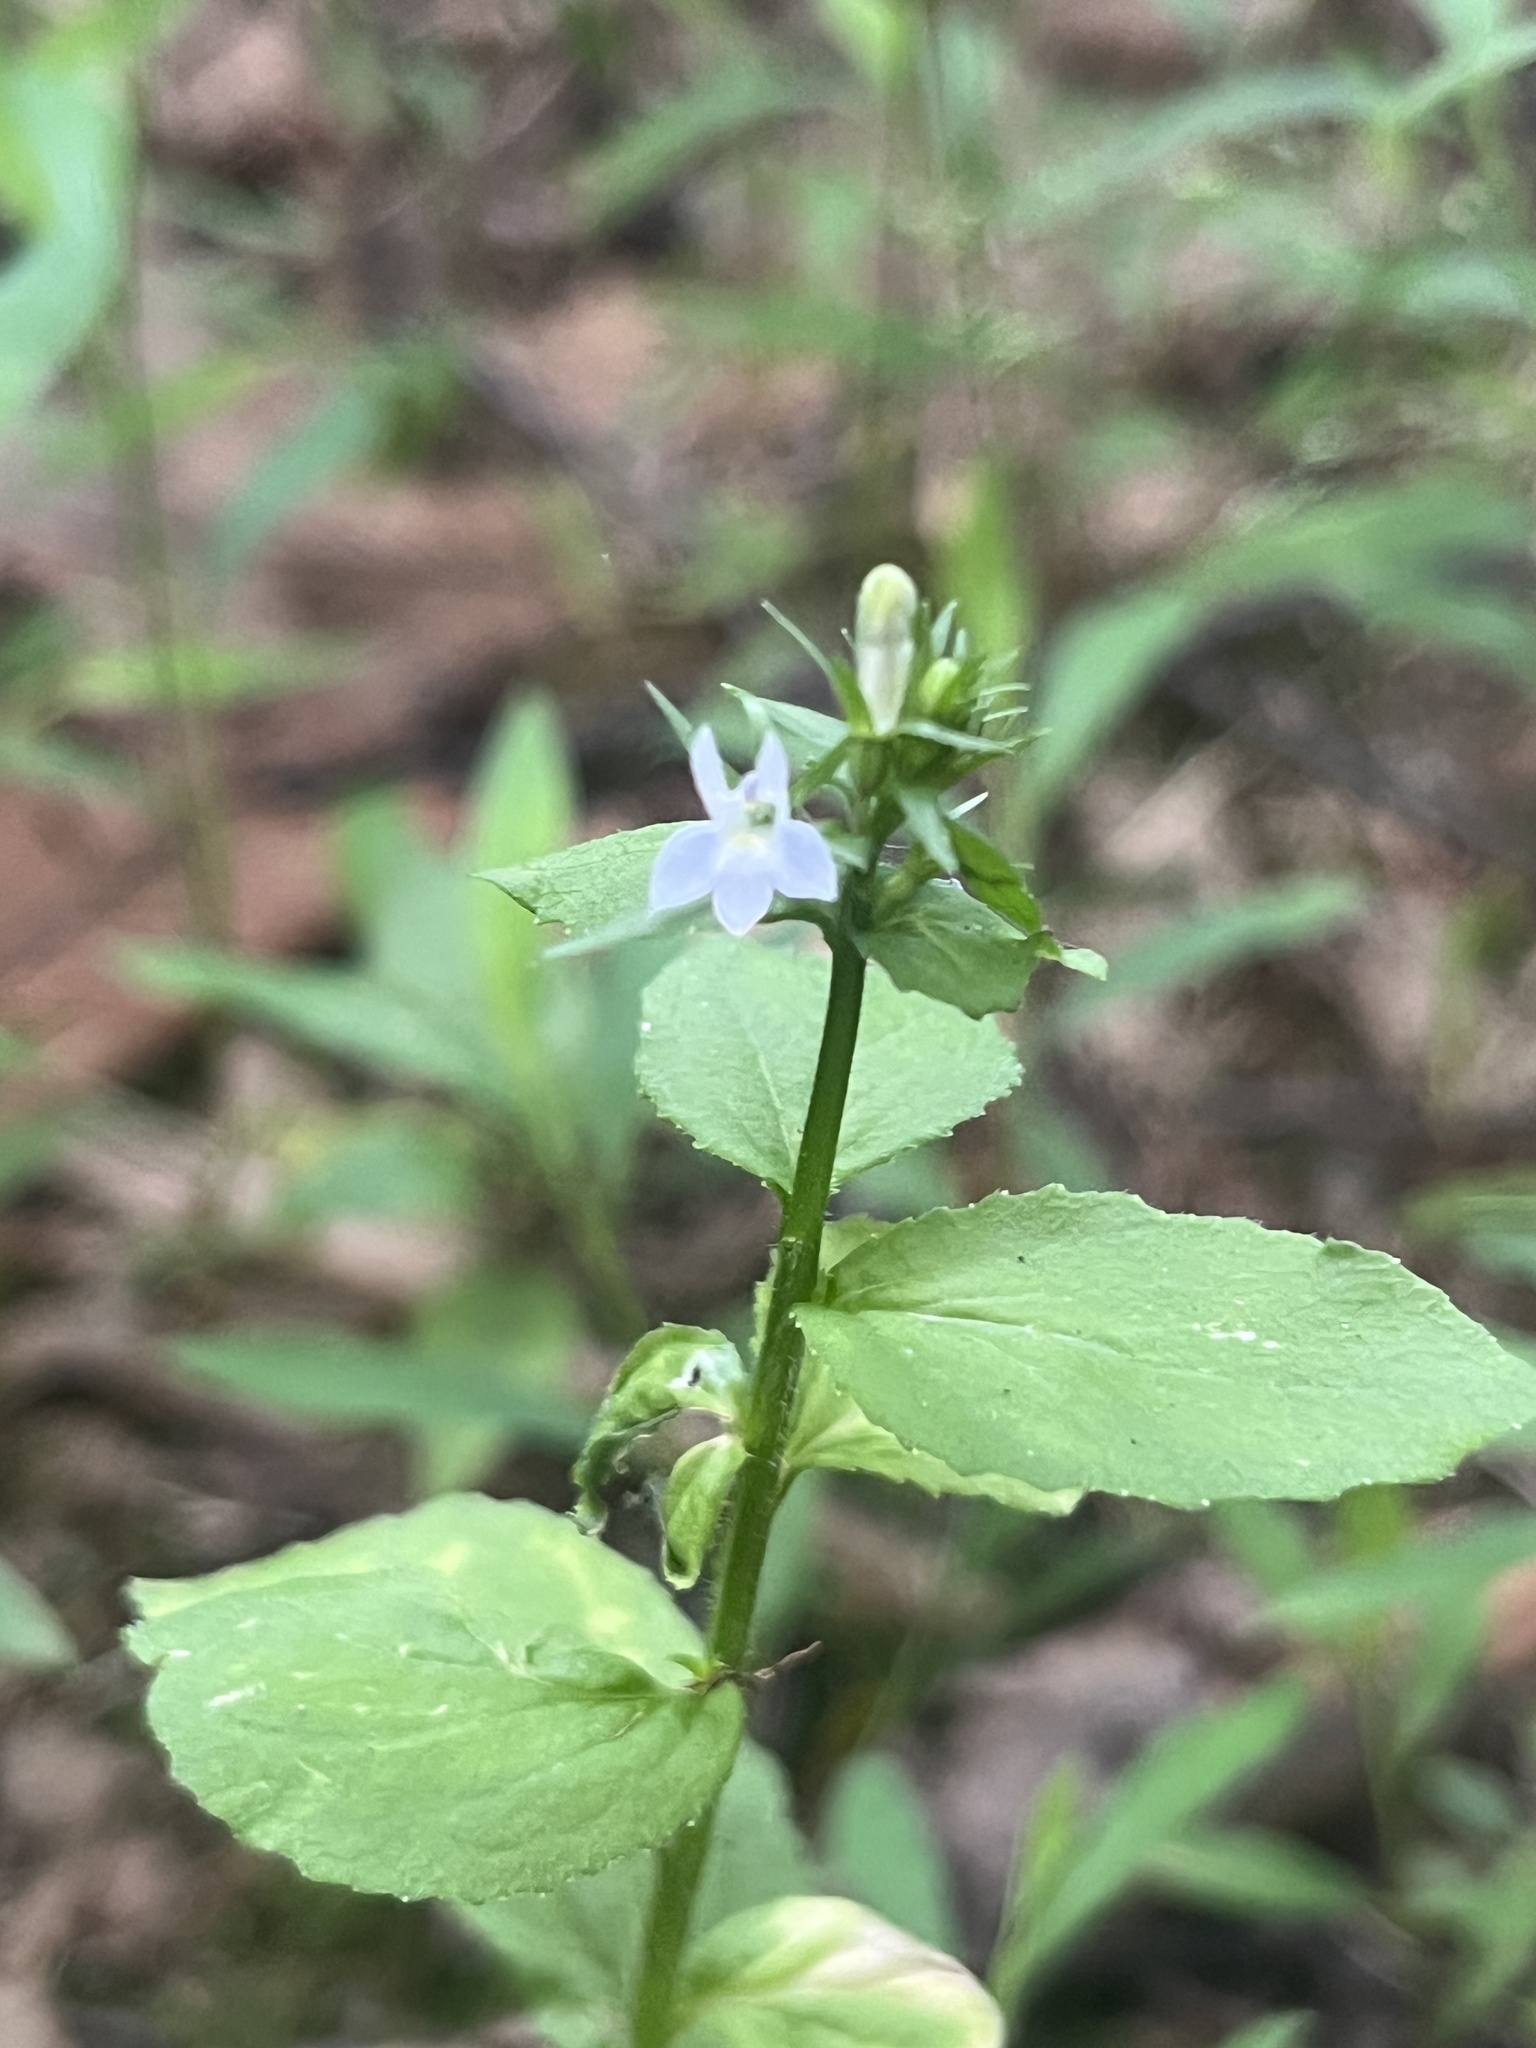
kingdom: Plantae
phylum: Tracheophyta
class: Magnoliopsida
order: Asterales
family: Campanulaceae
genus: Lobelia
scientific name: Lobelia inflata
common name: Indian tobacco
